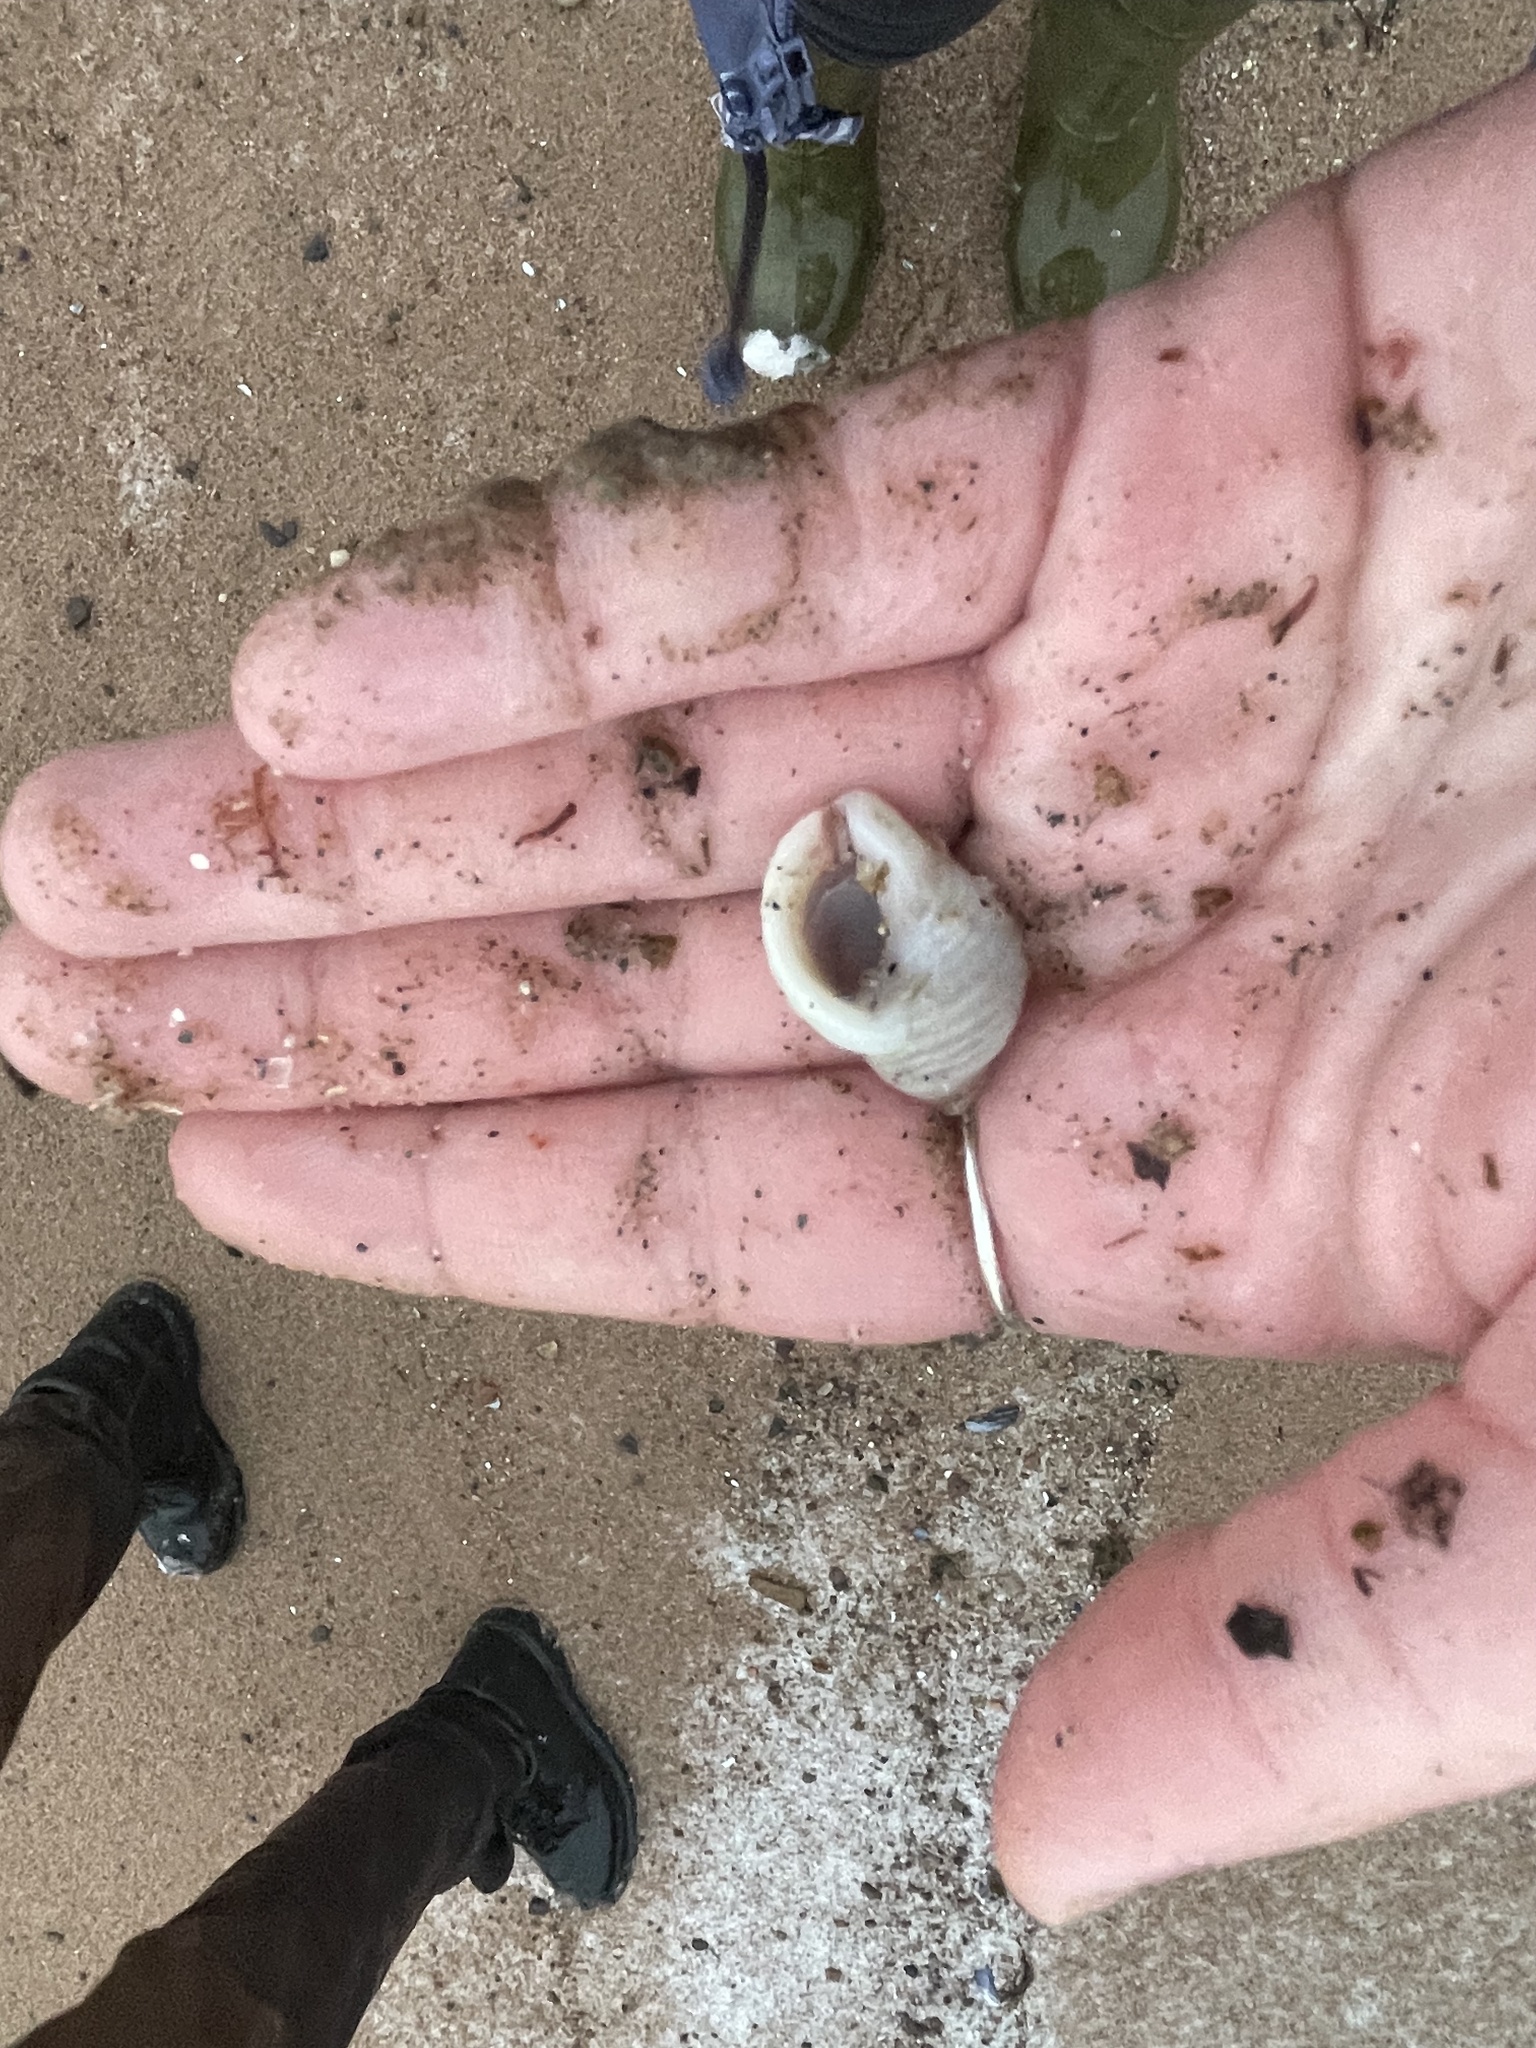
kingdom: Animalia
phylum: Mollusca
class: Gastropoda
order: Neogastropoda
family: Muricidae
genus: Nucella
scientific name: Nucella lapillus
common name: Dog whelk
